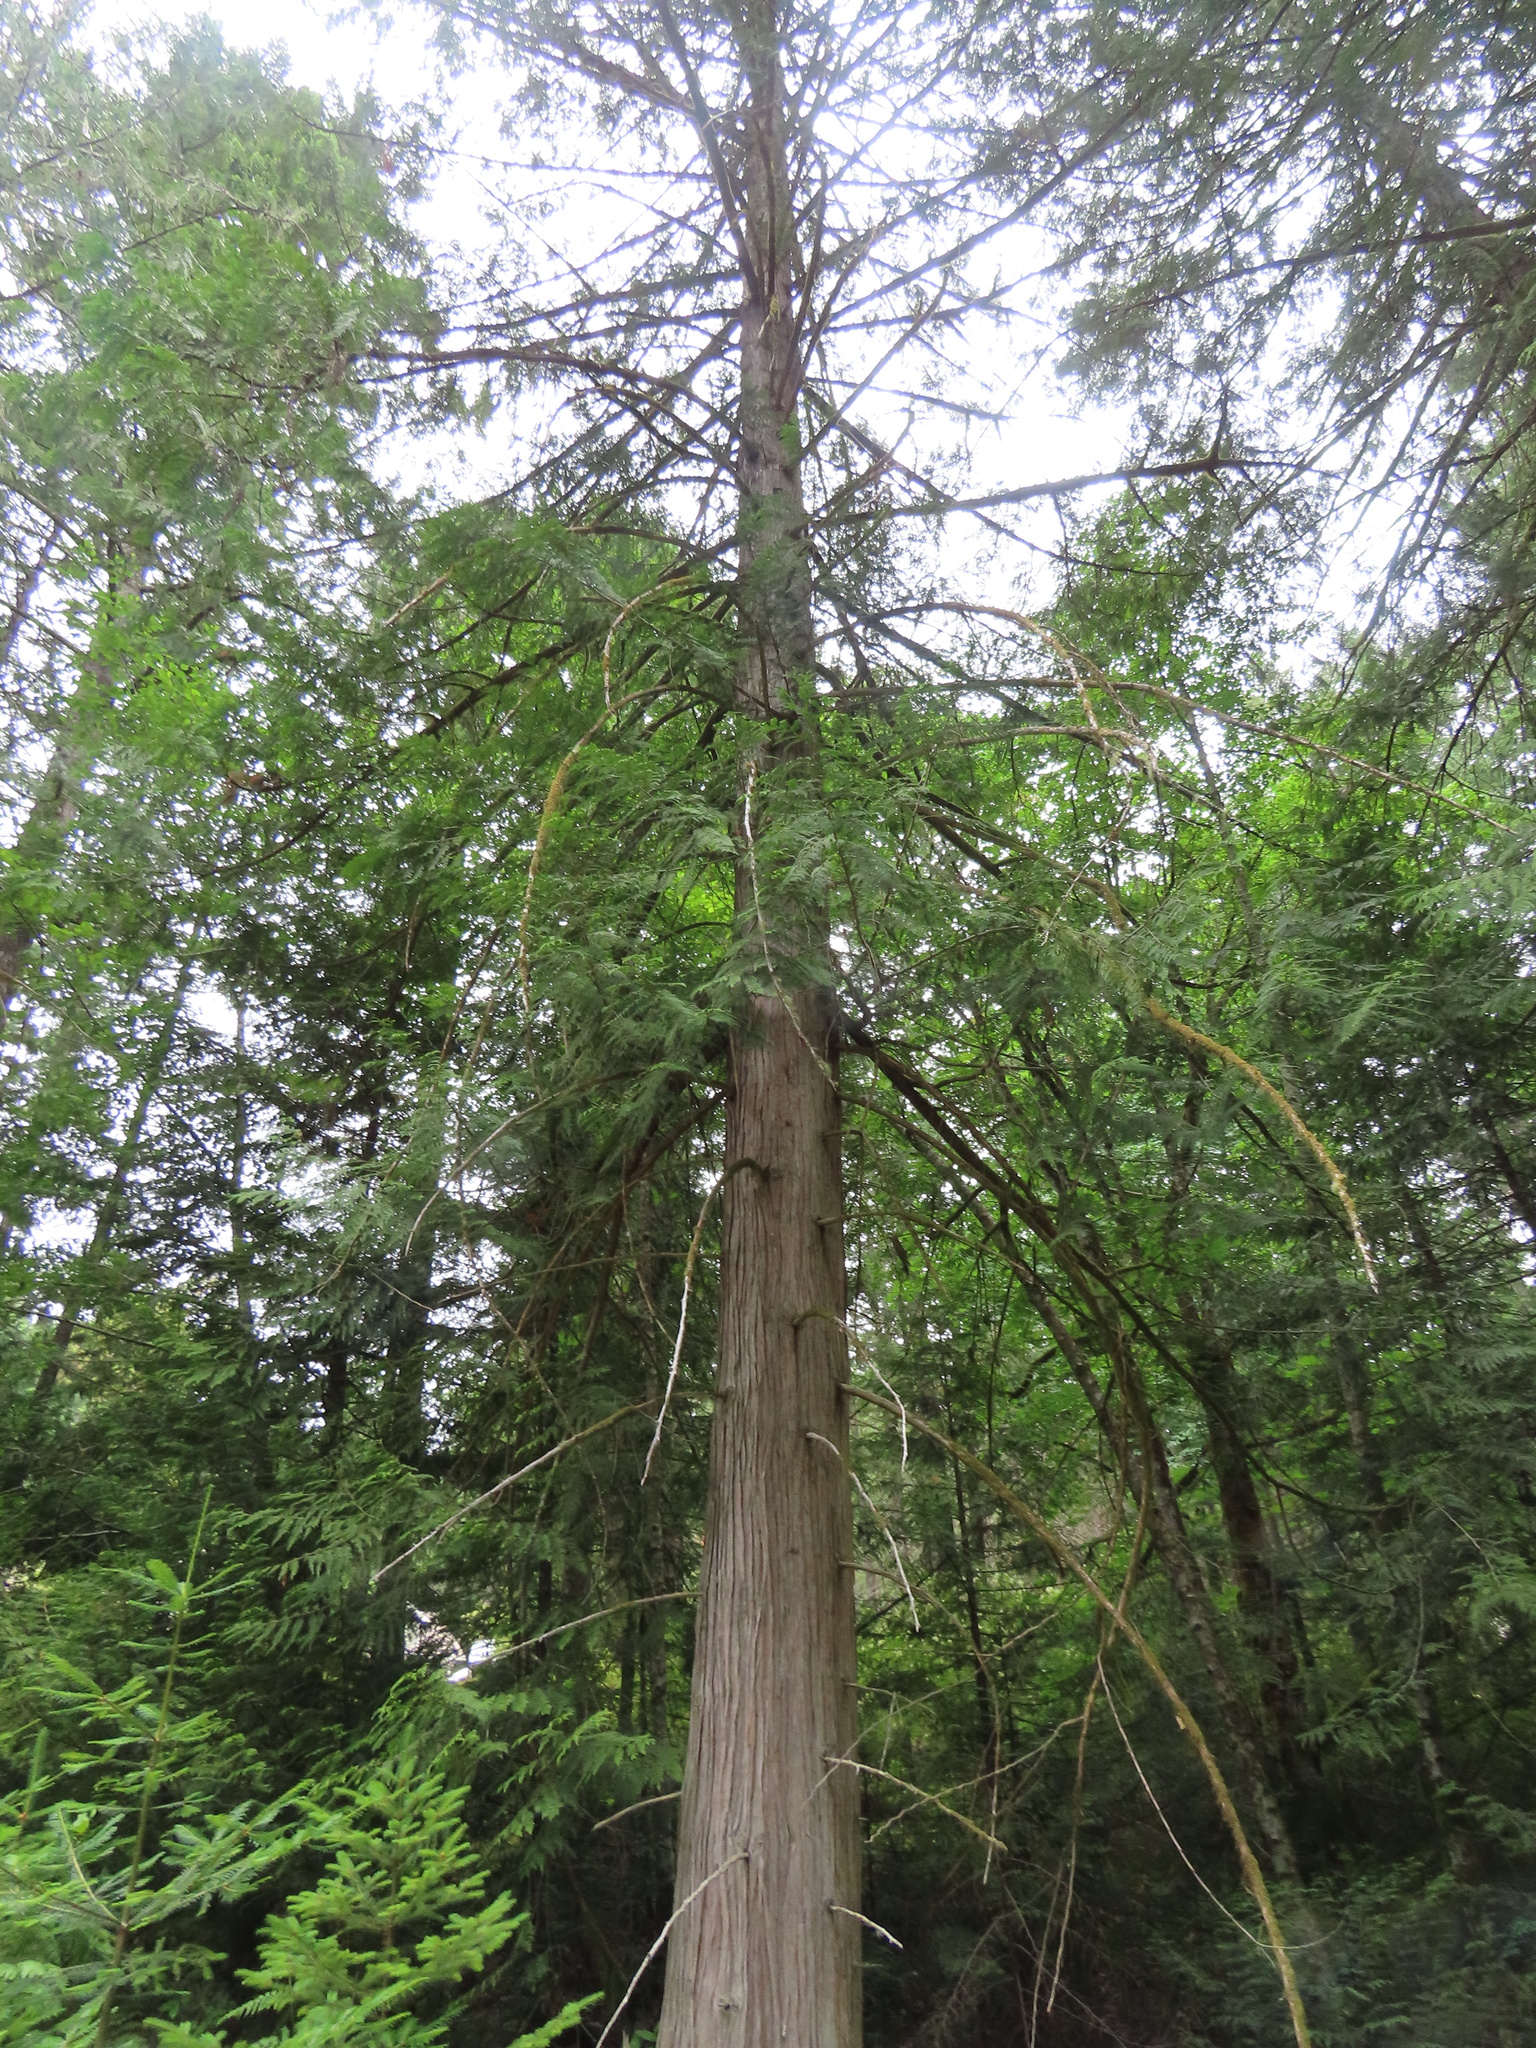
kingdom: Plantae
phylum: Tracheophyta
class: Pinopsida
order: Pinales
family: Cupressaceae
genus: Thuja
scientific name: Thuja plicata
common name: Western red-cedar
